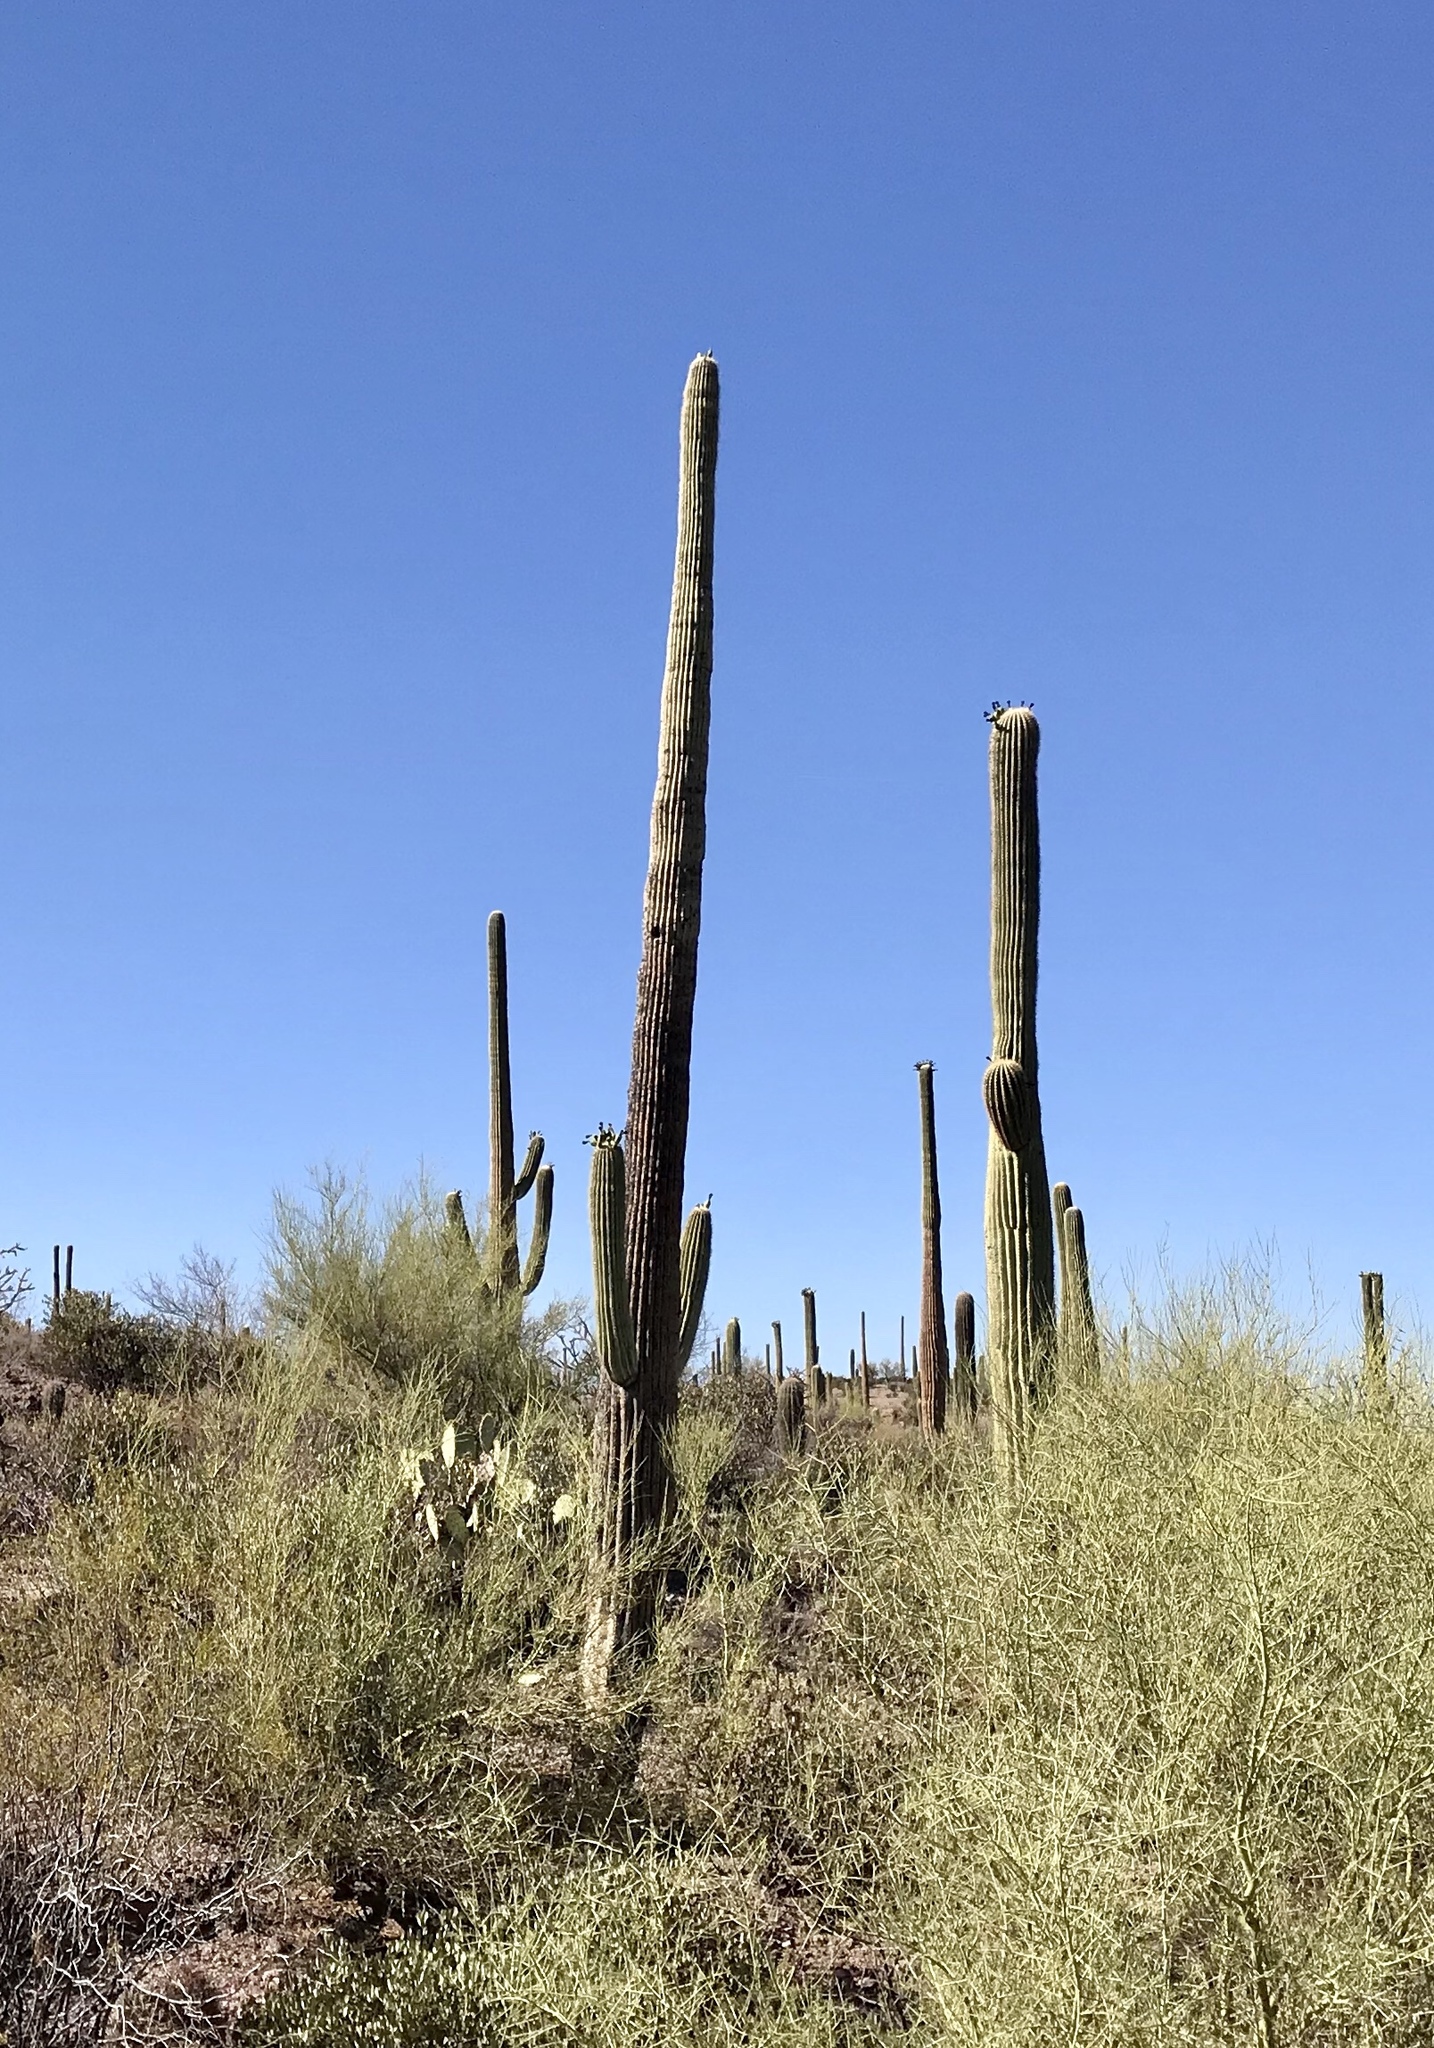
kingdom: Plantae
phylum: Tracheophyta
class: Magnoliopsida
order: Caryophyllales
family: Cactaceae
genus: Carnegiea
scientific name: Carnegiea gigantea
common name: Saguaro
